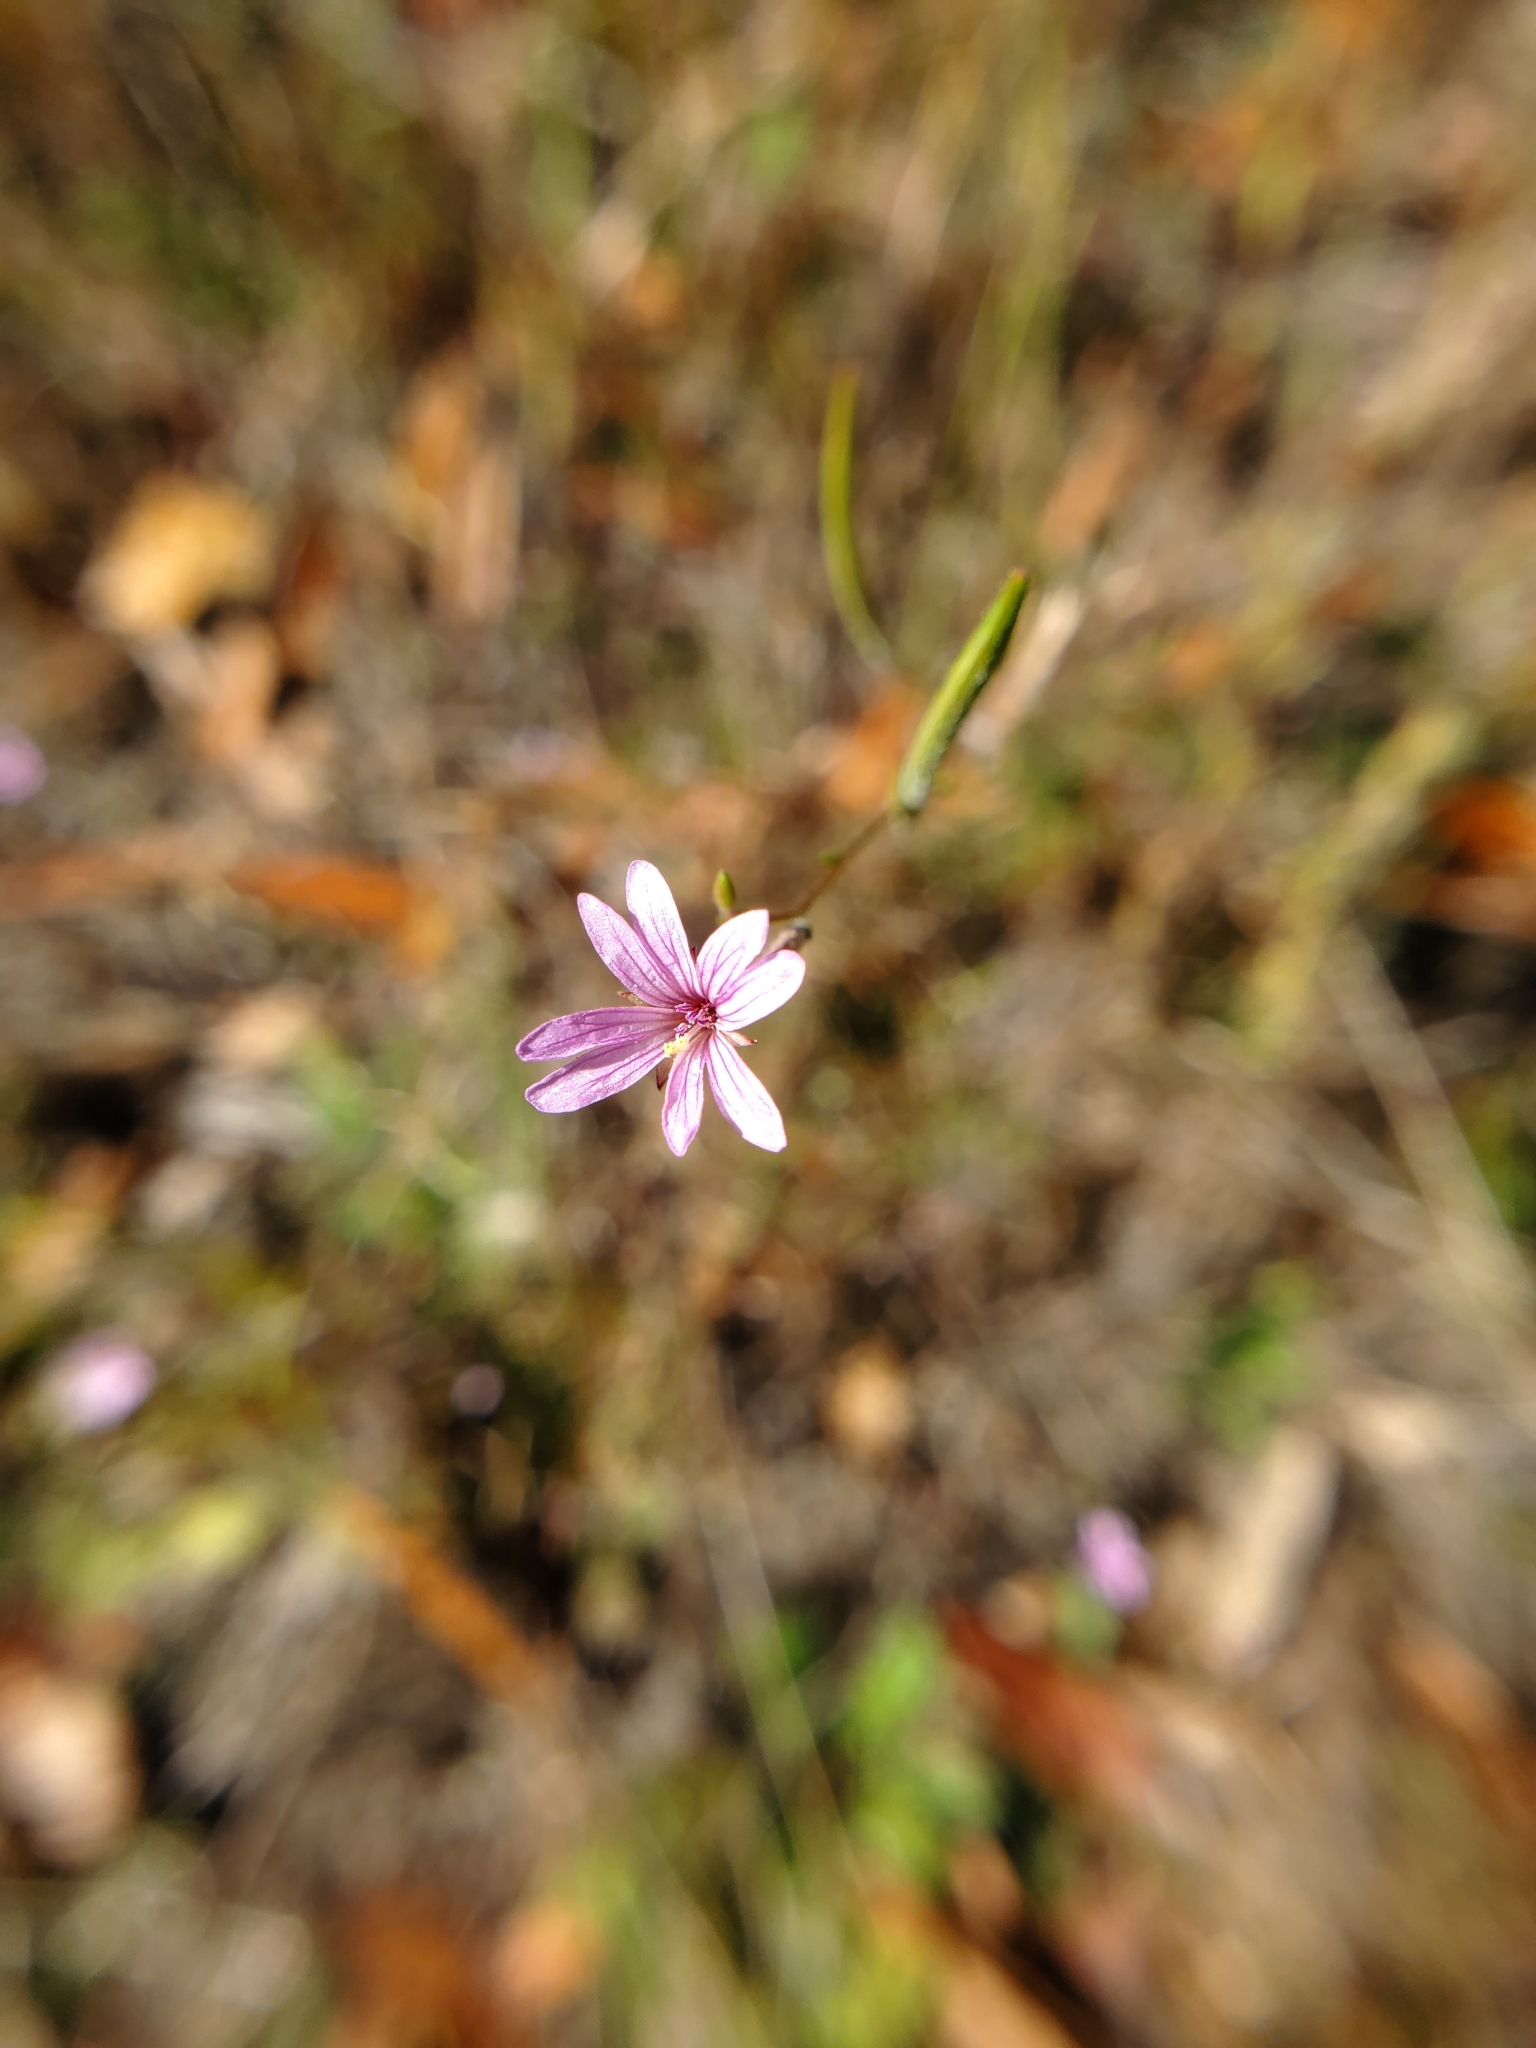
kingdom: Plantae
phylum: Tracheophyta
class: Magnoliopsida
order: Myrtales
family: Onagraceae
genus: Epilobium
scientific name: Epilobium brachycarpum
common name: Annual willowherb
